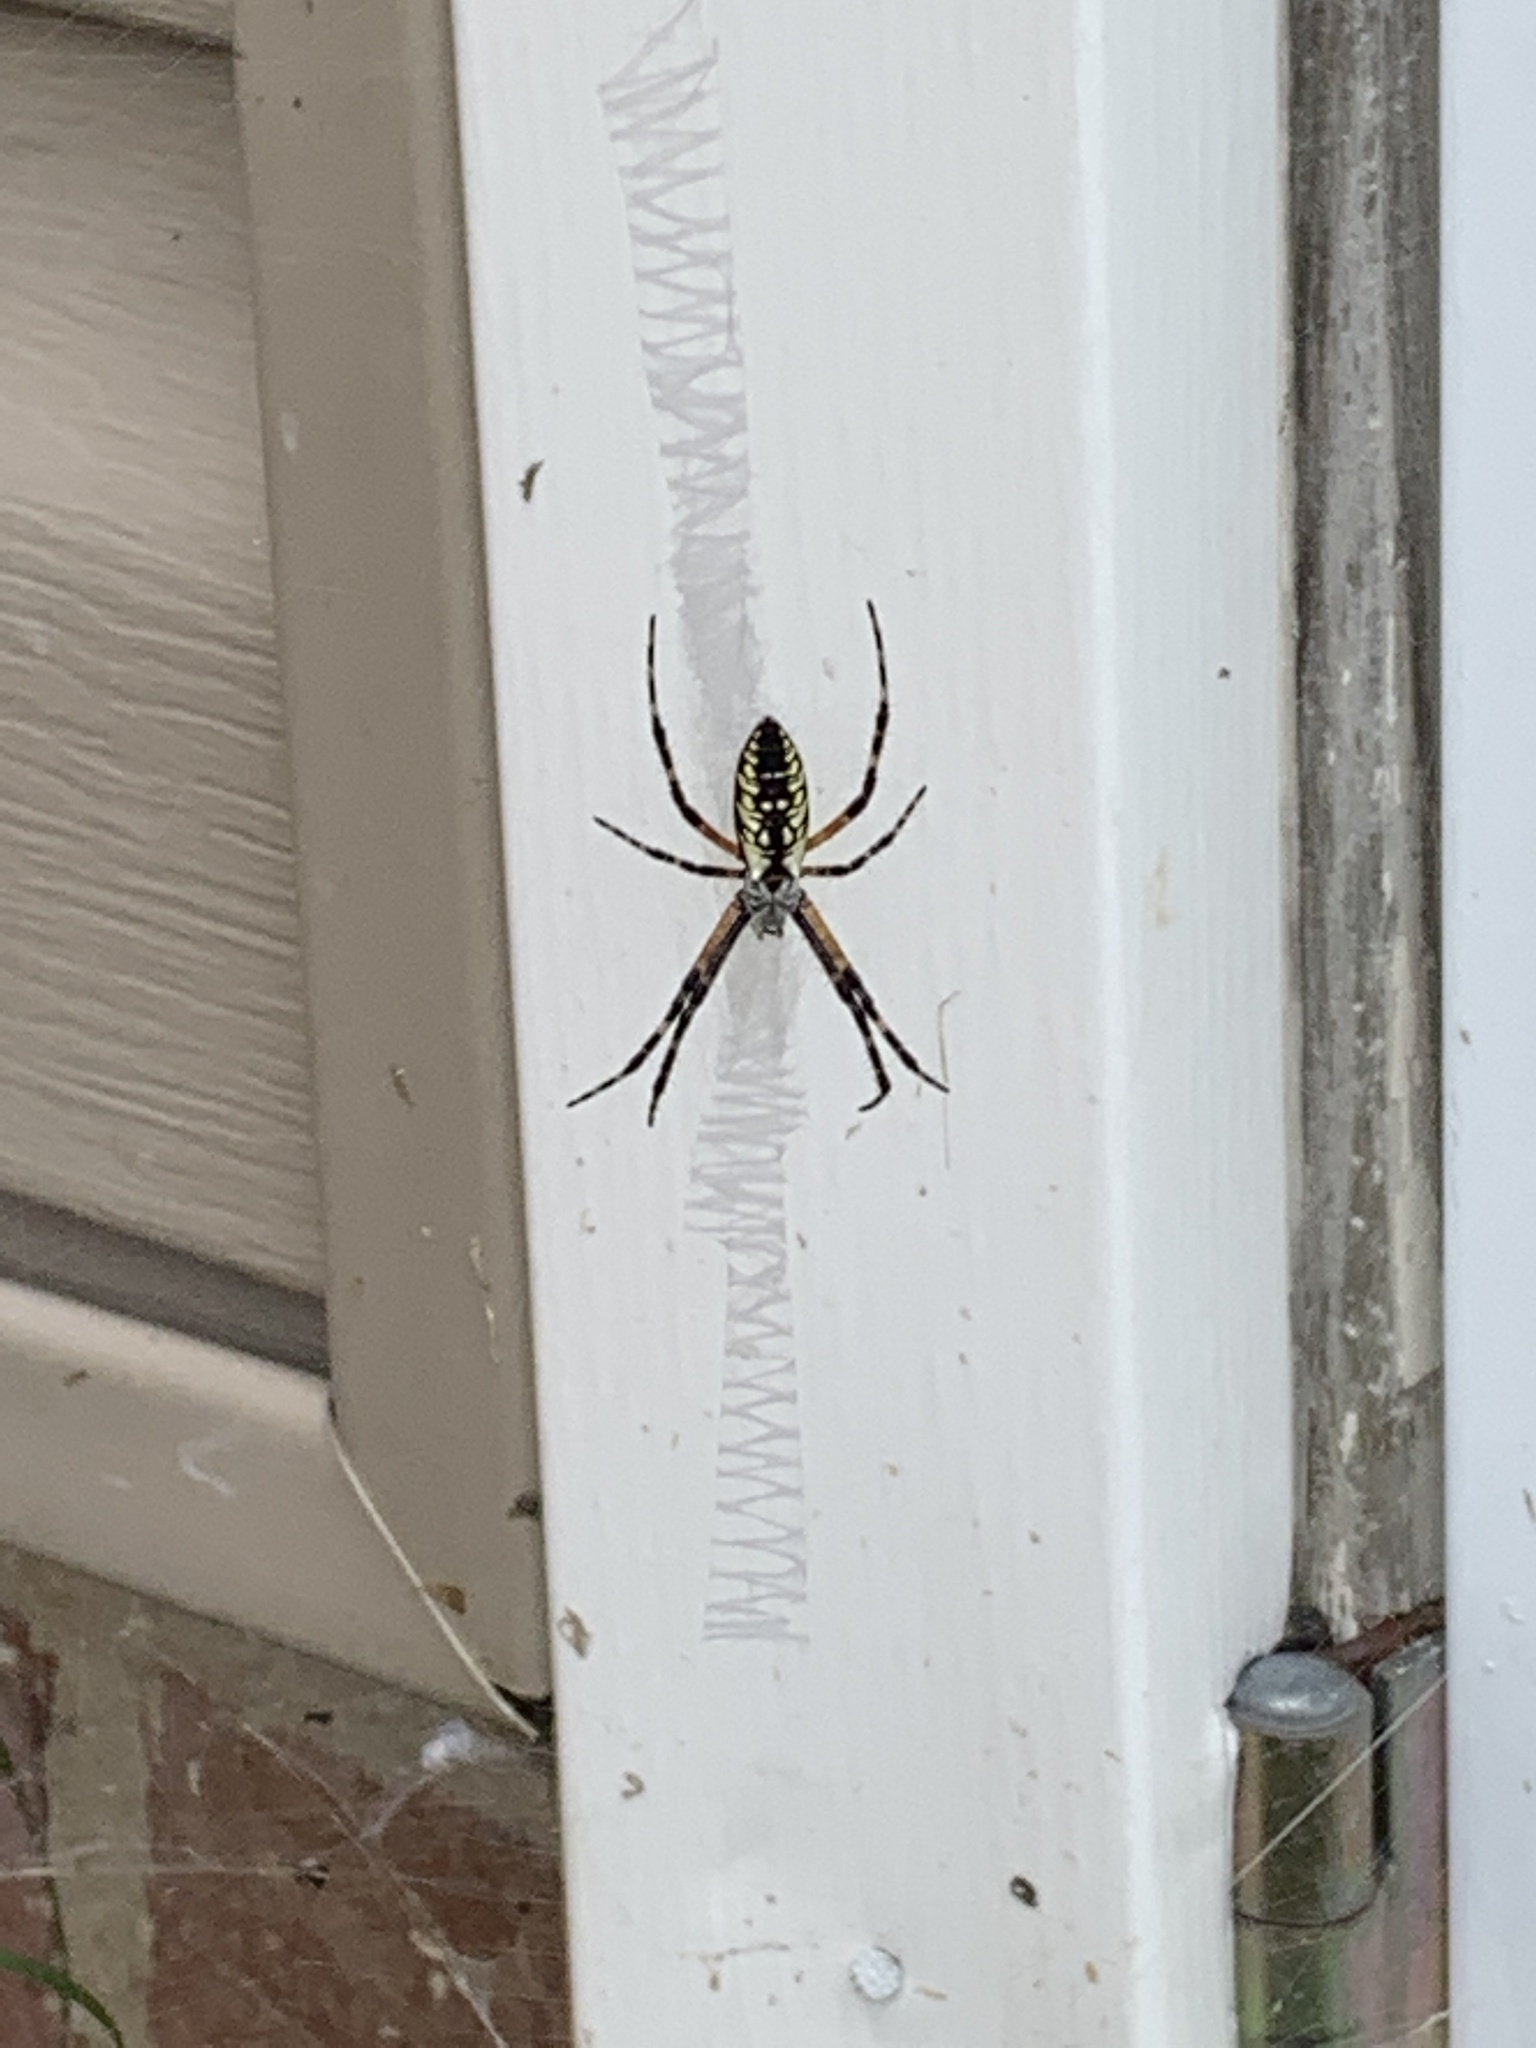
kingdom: Animalia
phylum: Arthropoda
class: Arachnida
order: Araneae
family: Araneidae
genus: Argiope
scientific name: Argiope aurantia
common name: Orb weavers
